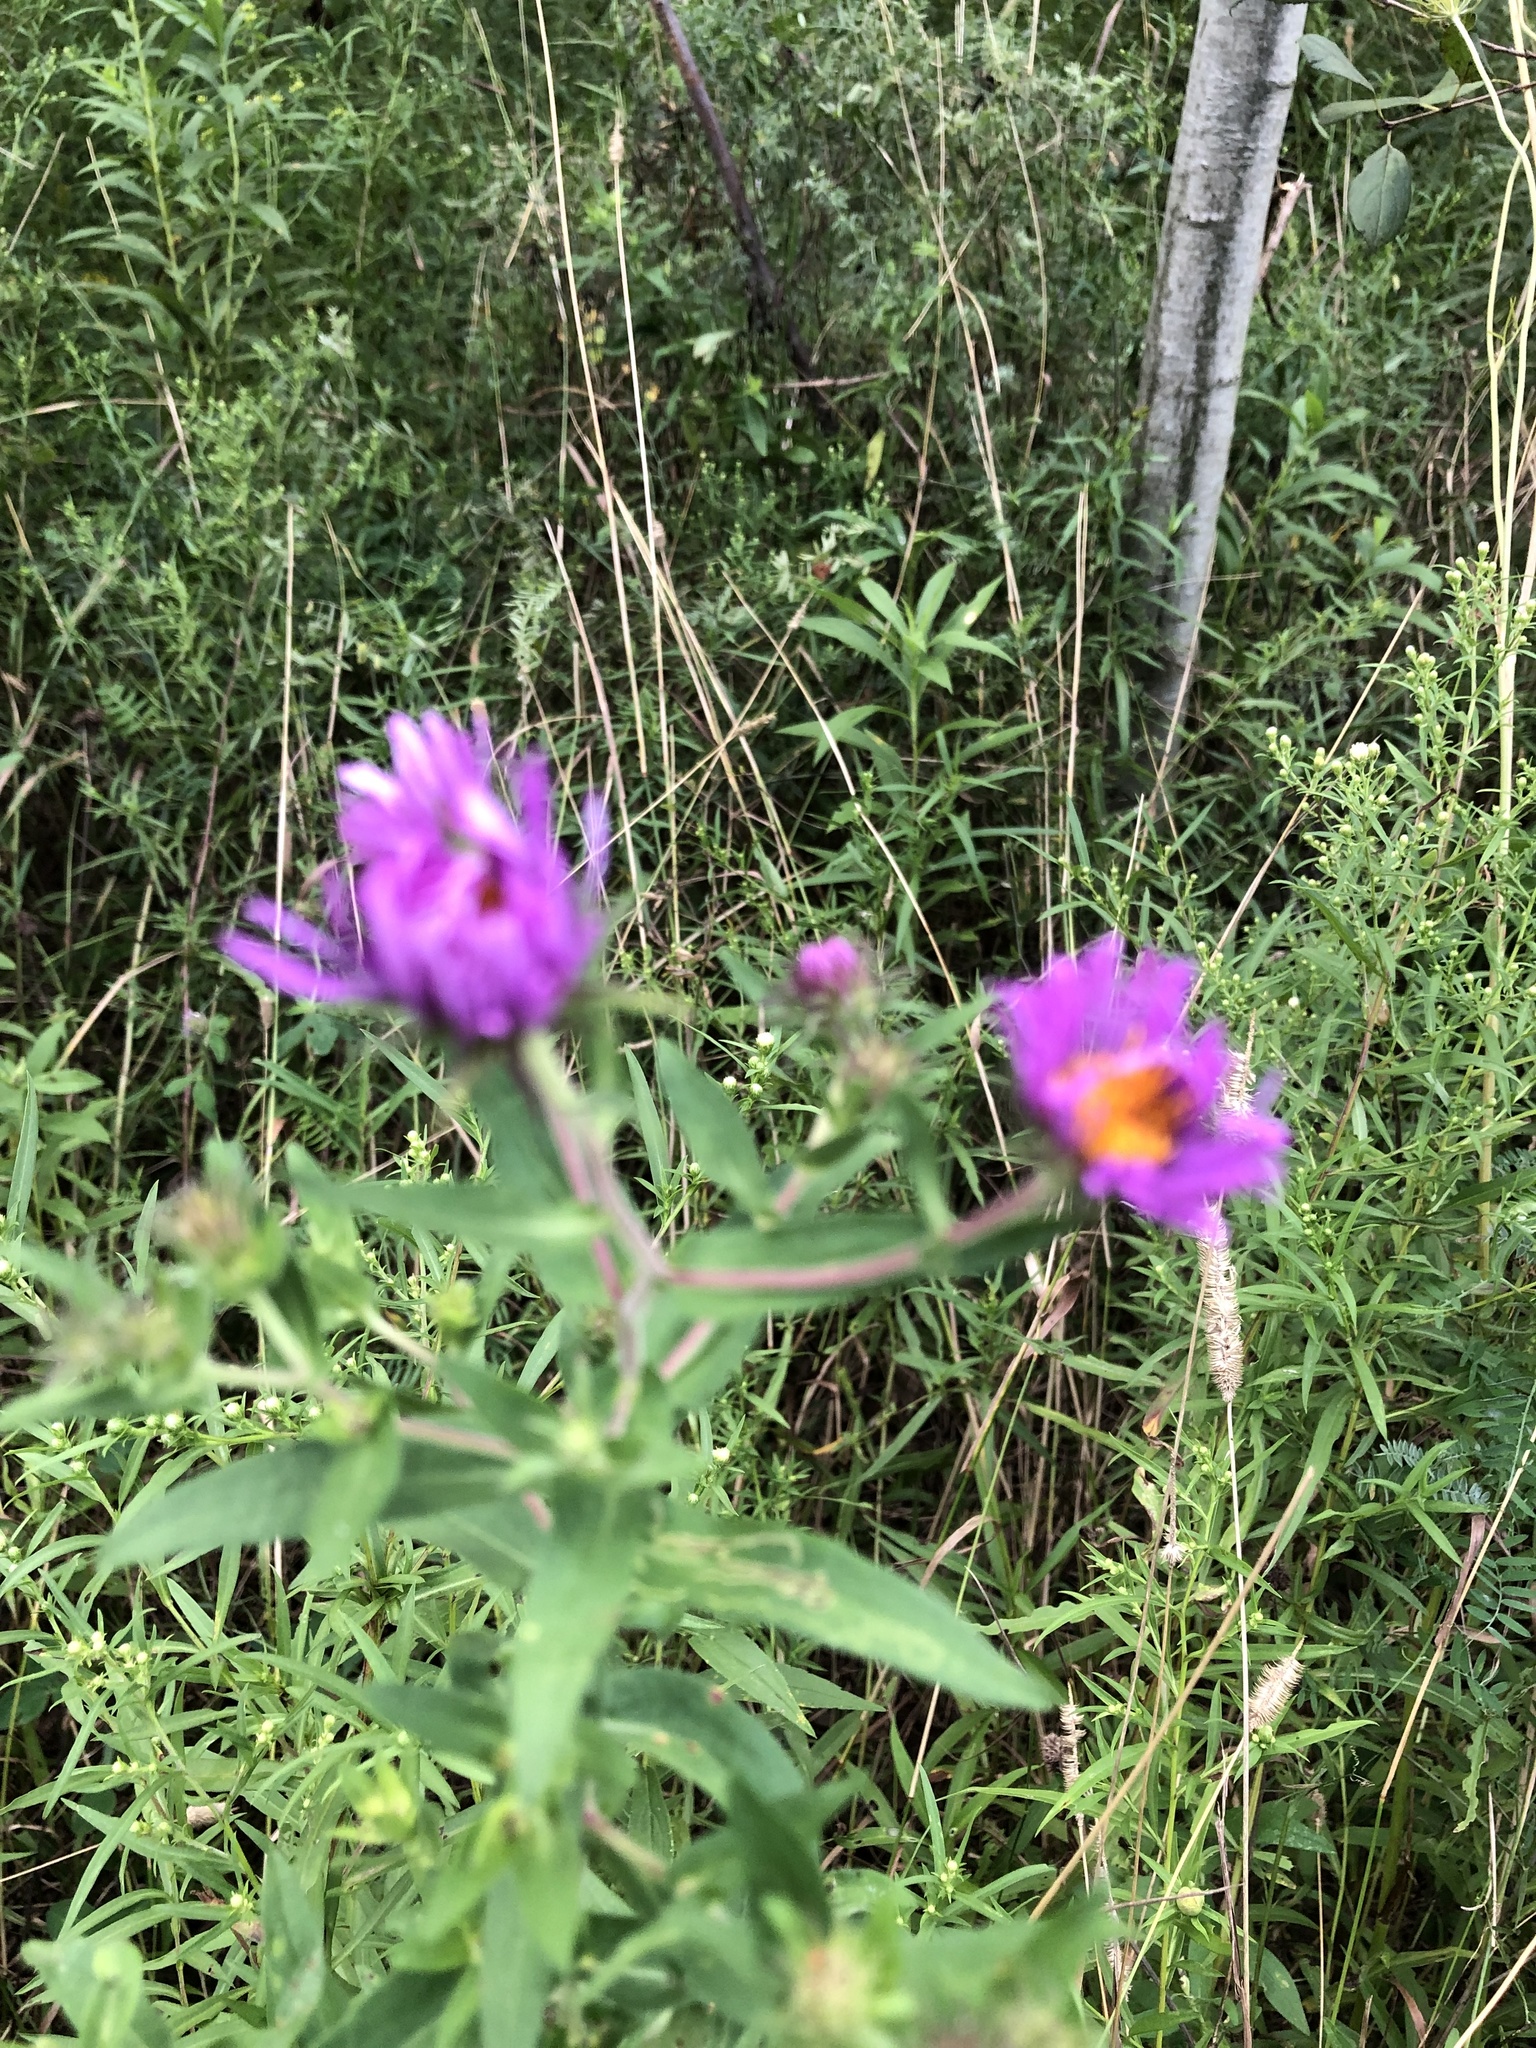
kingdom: Plantae
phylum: Tracheophyta
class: Magnoliopsida
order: Asterales
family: Asteraceae
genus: Symphyotrichum
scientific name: Symphyotrichum novae-angliae
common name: Michaelmas daisy
